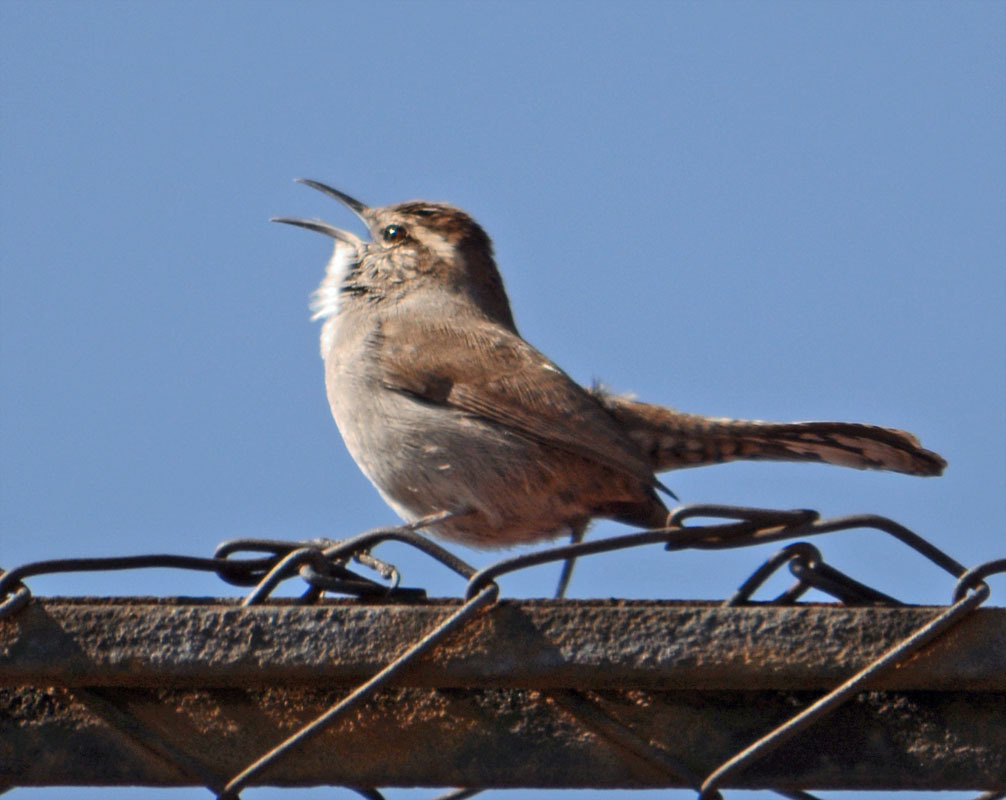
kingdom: Animalia
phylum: Chordata
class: Aves
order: Passeriformes
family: Troglodytidae
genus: Thryomanes
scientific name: Thryomanes bewickii
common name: Bewick's wren
